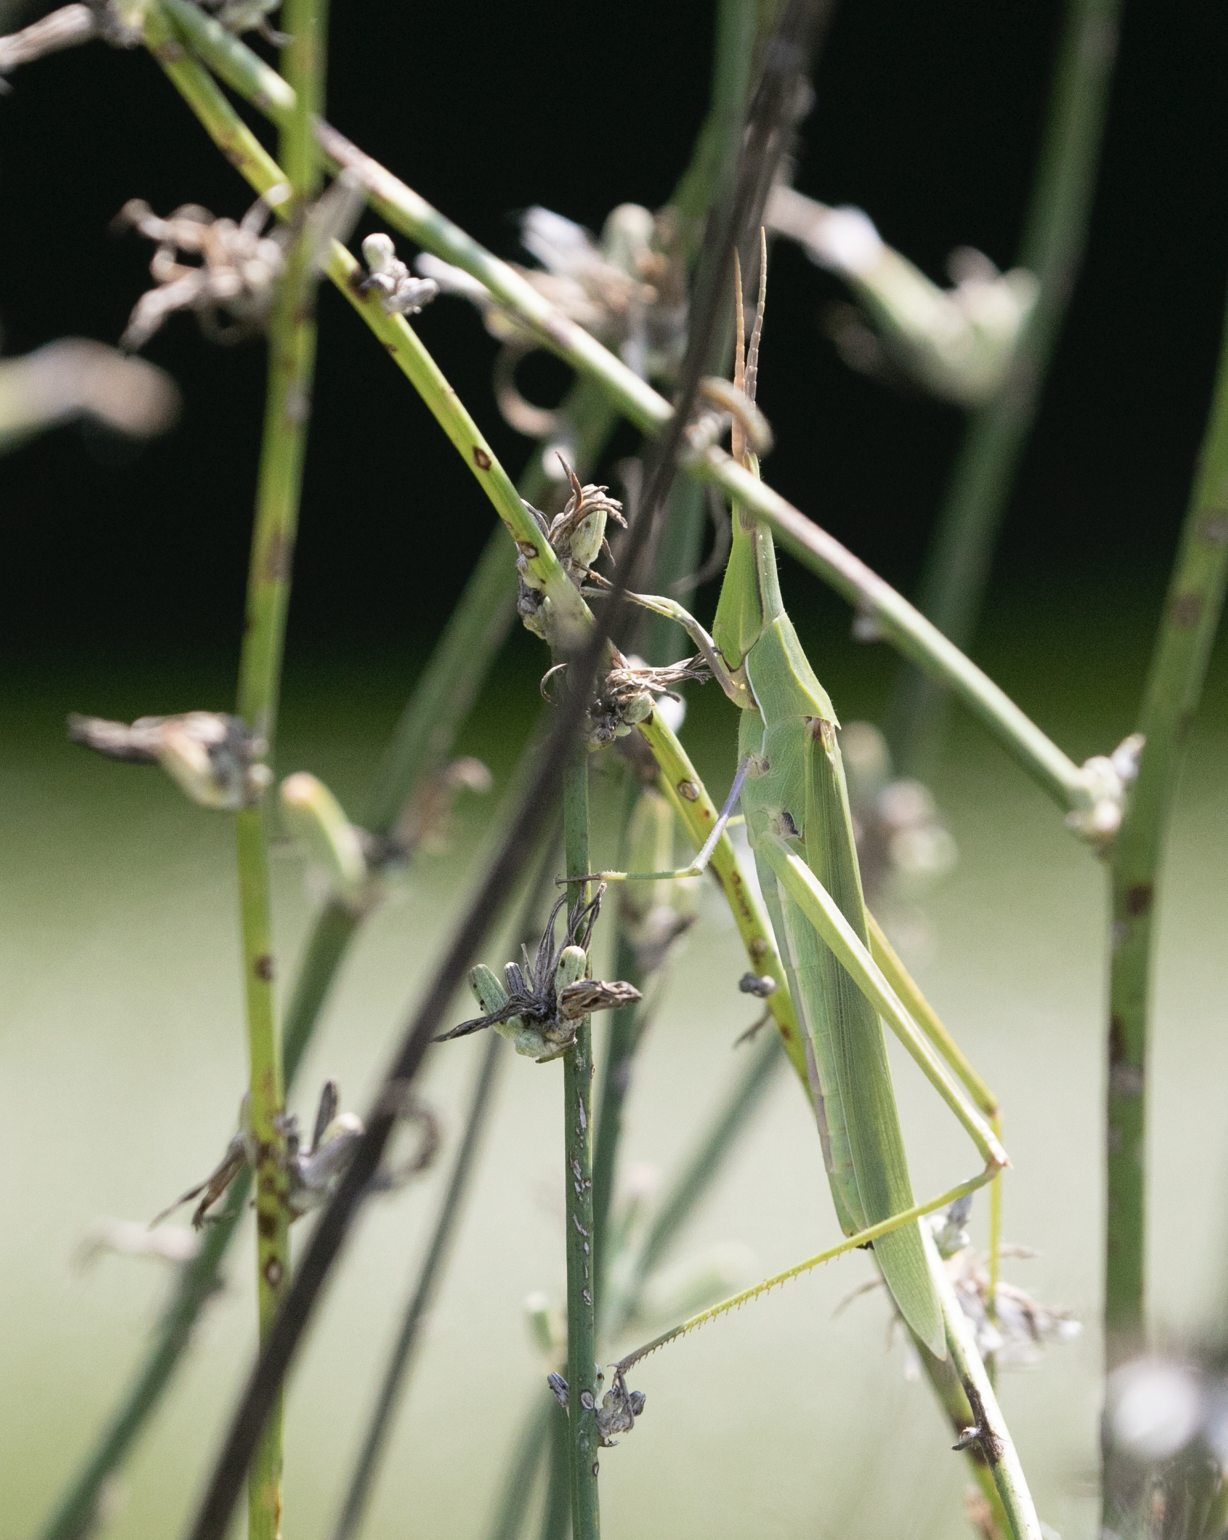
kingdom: Animalia
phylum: Arthropoda
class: Insecta
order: Orthoptera
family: Acrididae
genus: Acrida
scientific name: Acrida ungarica
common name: Common cone-headed grasshopper
